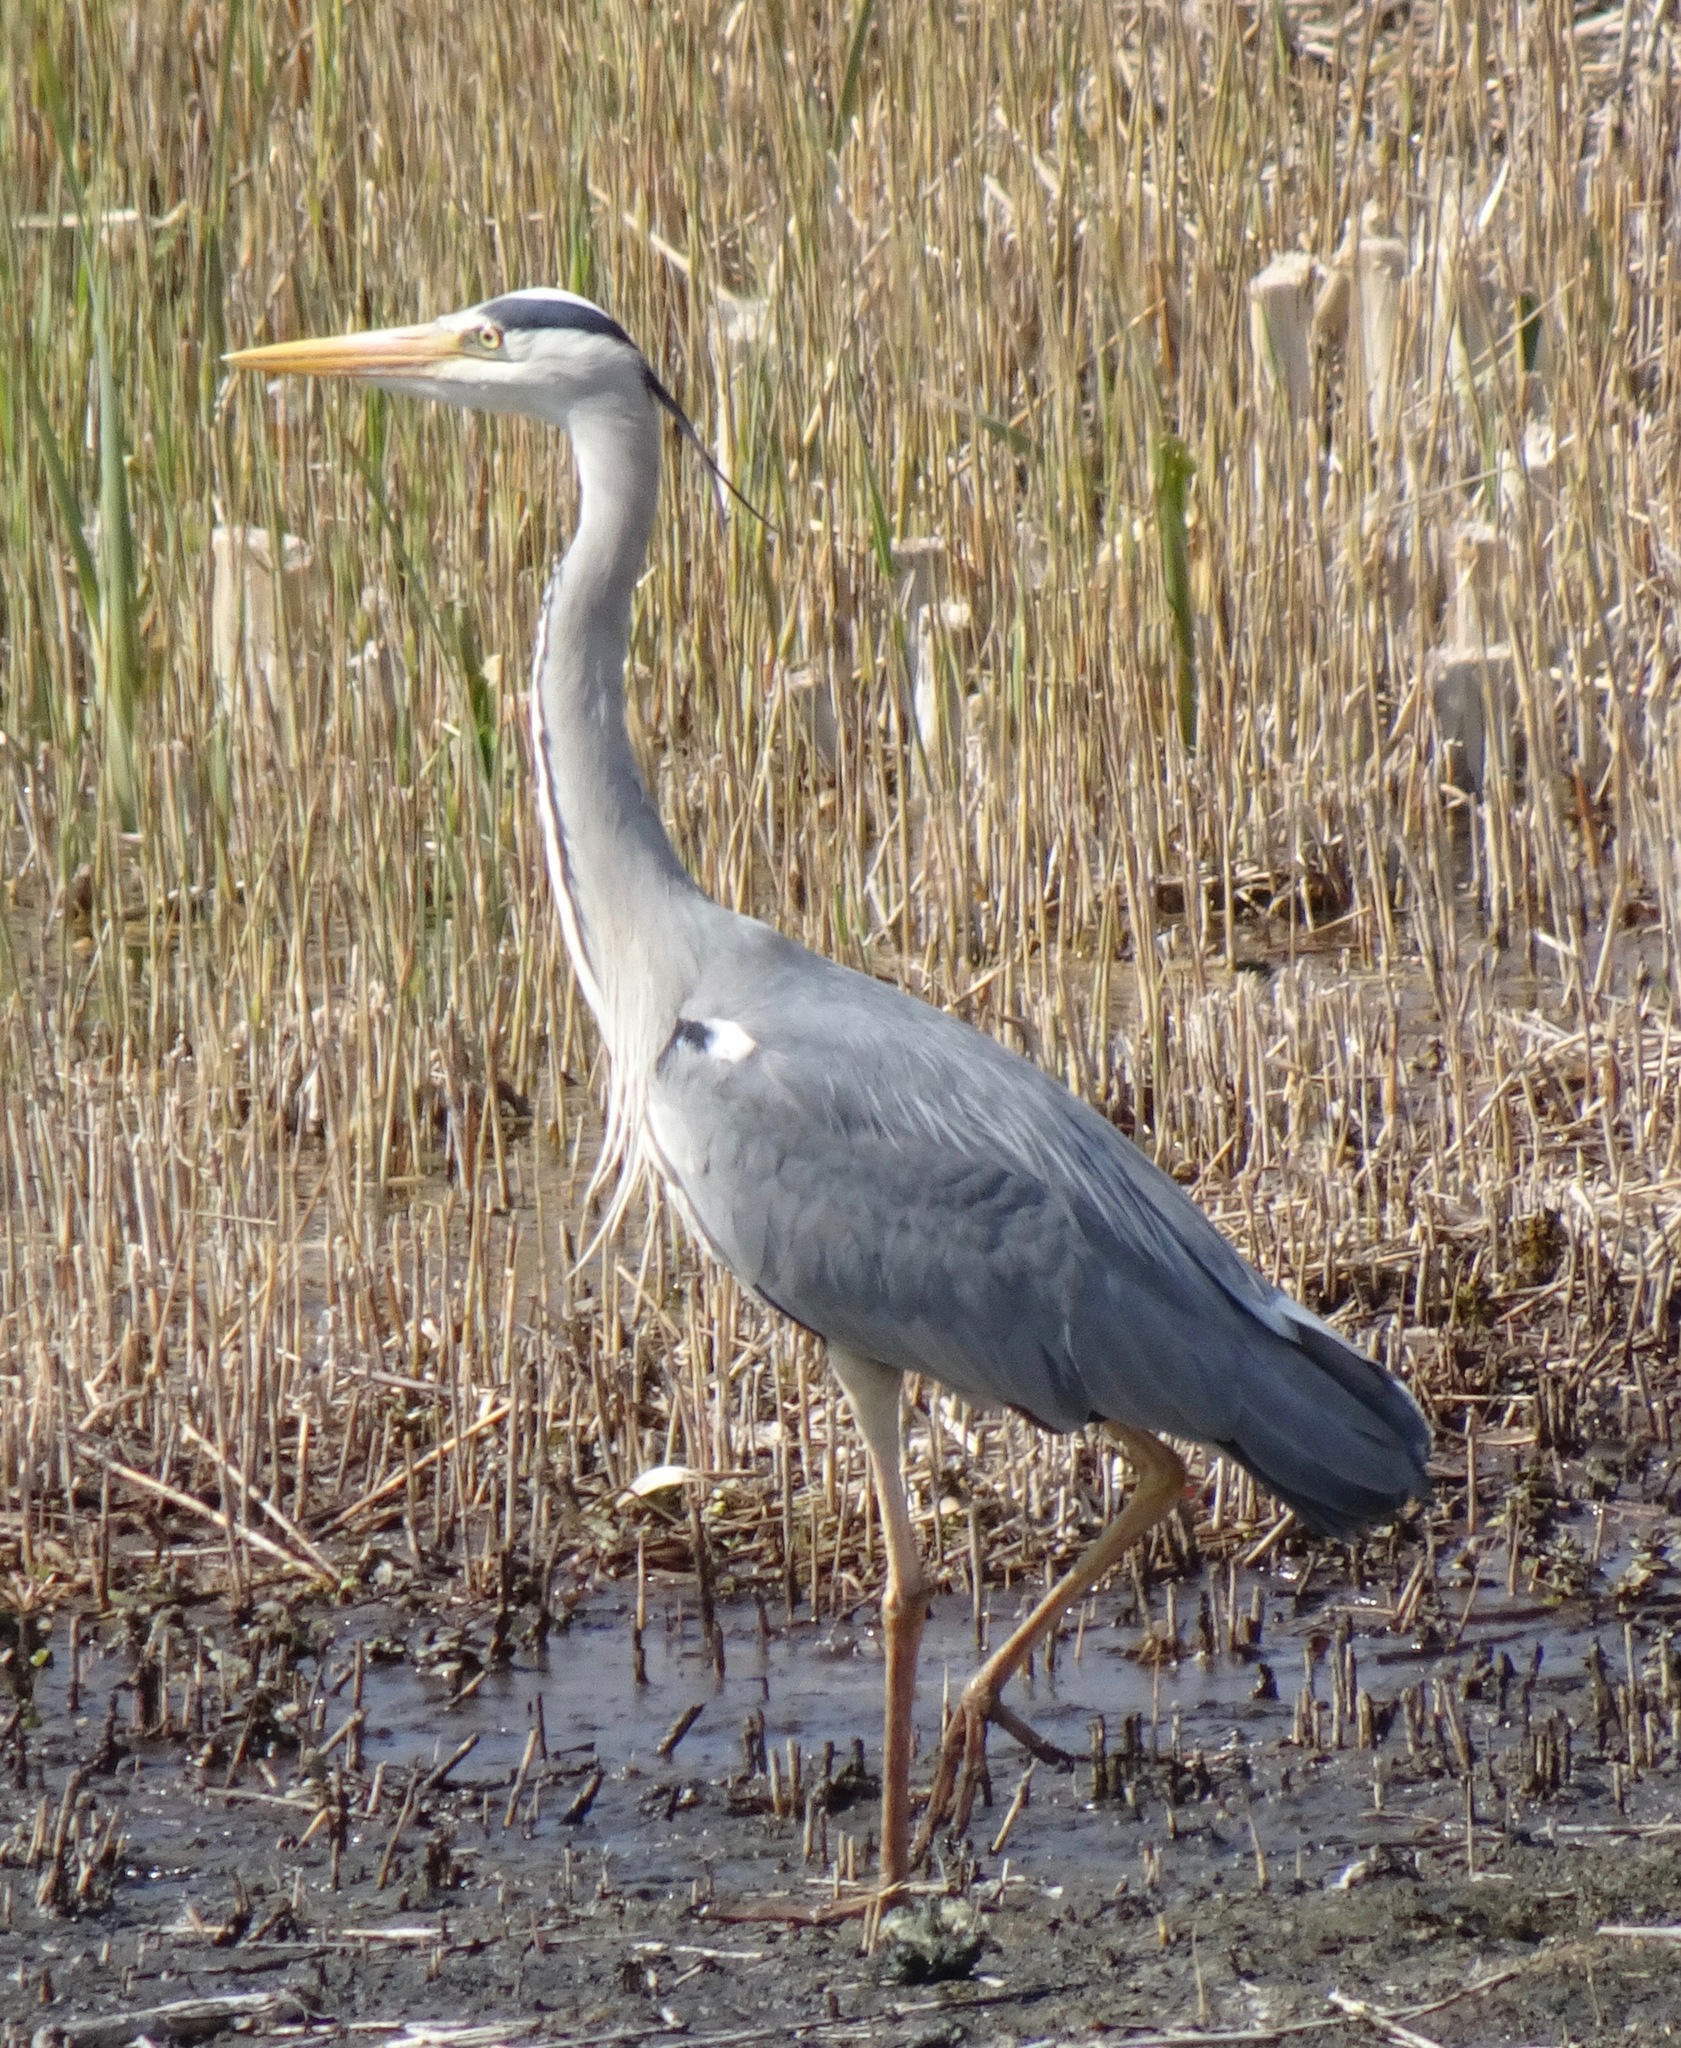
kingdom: Animalia
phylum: Chordata
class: Aves
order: Pelecaniformes
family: Ardeidae
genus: Ardea
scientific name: Ardea cinerea
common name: Grey heron
